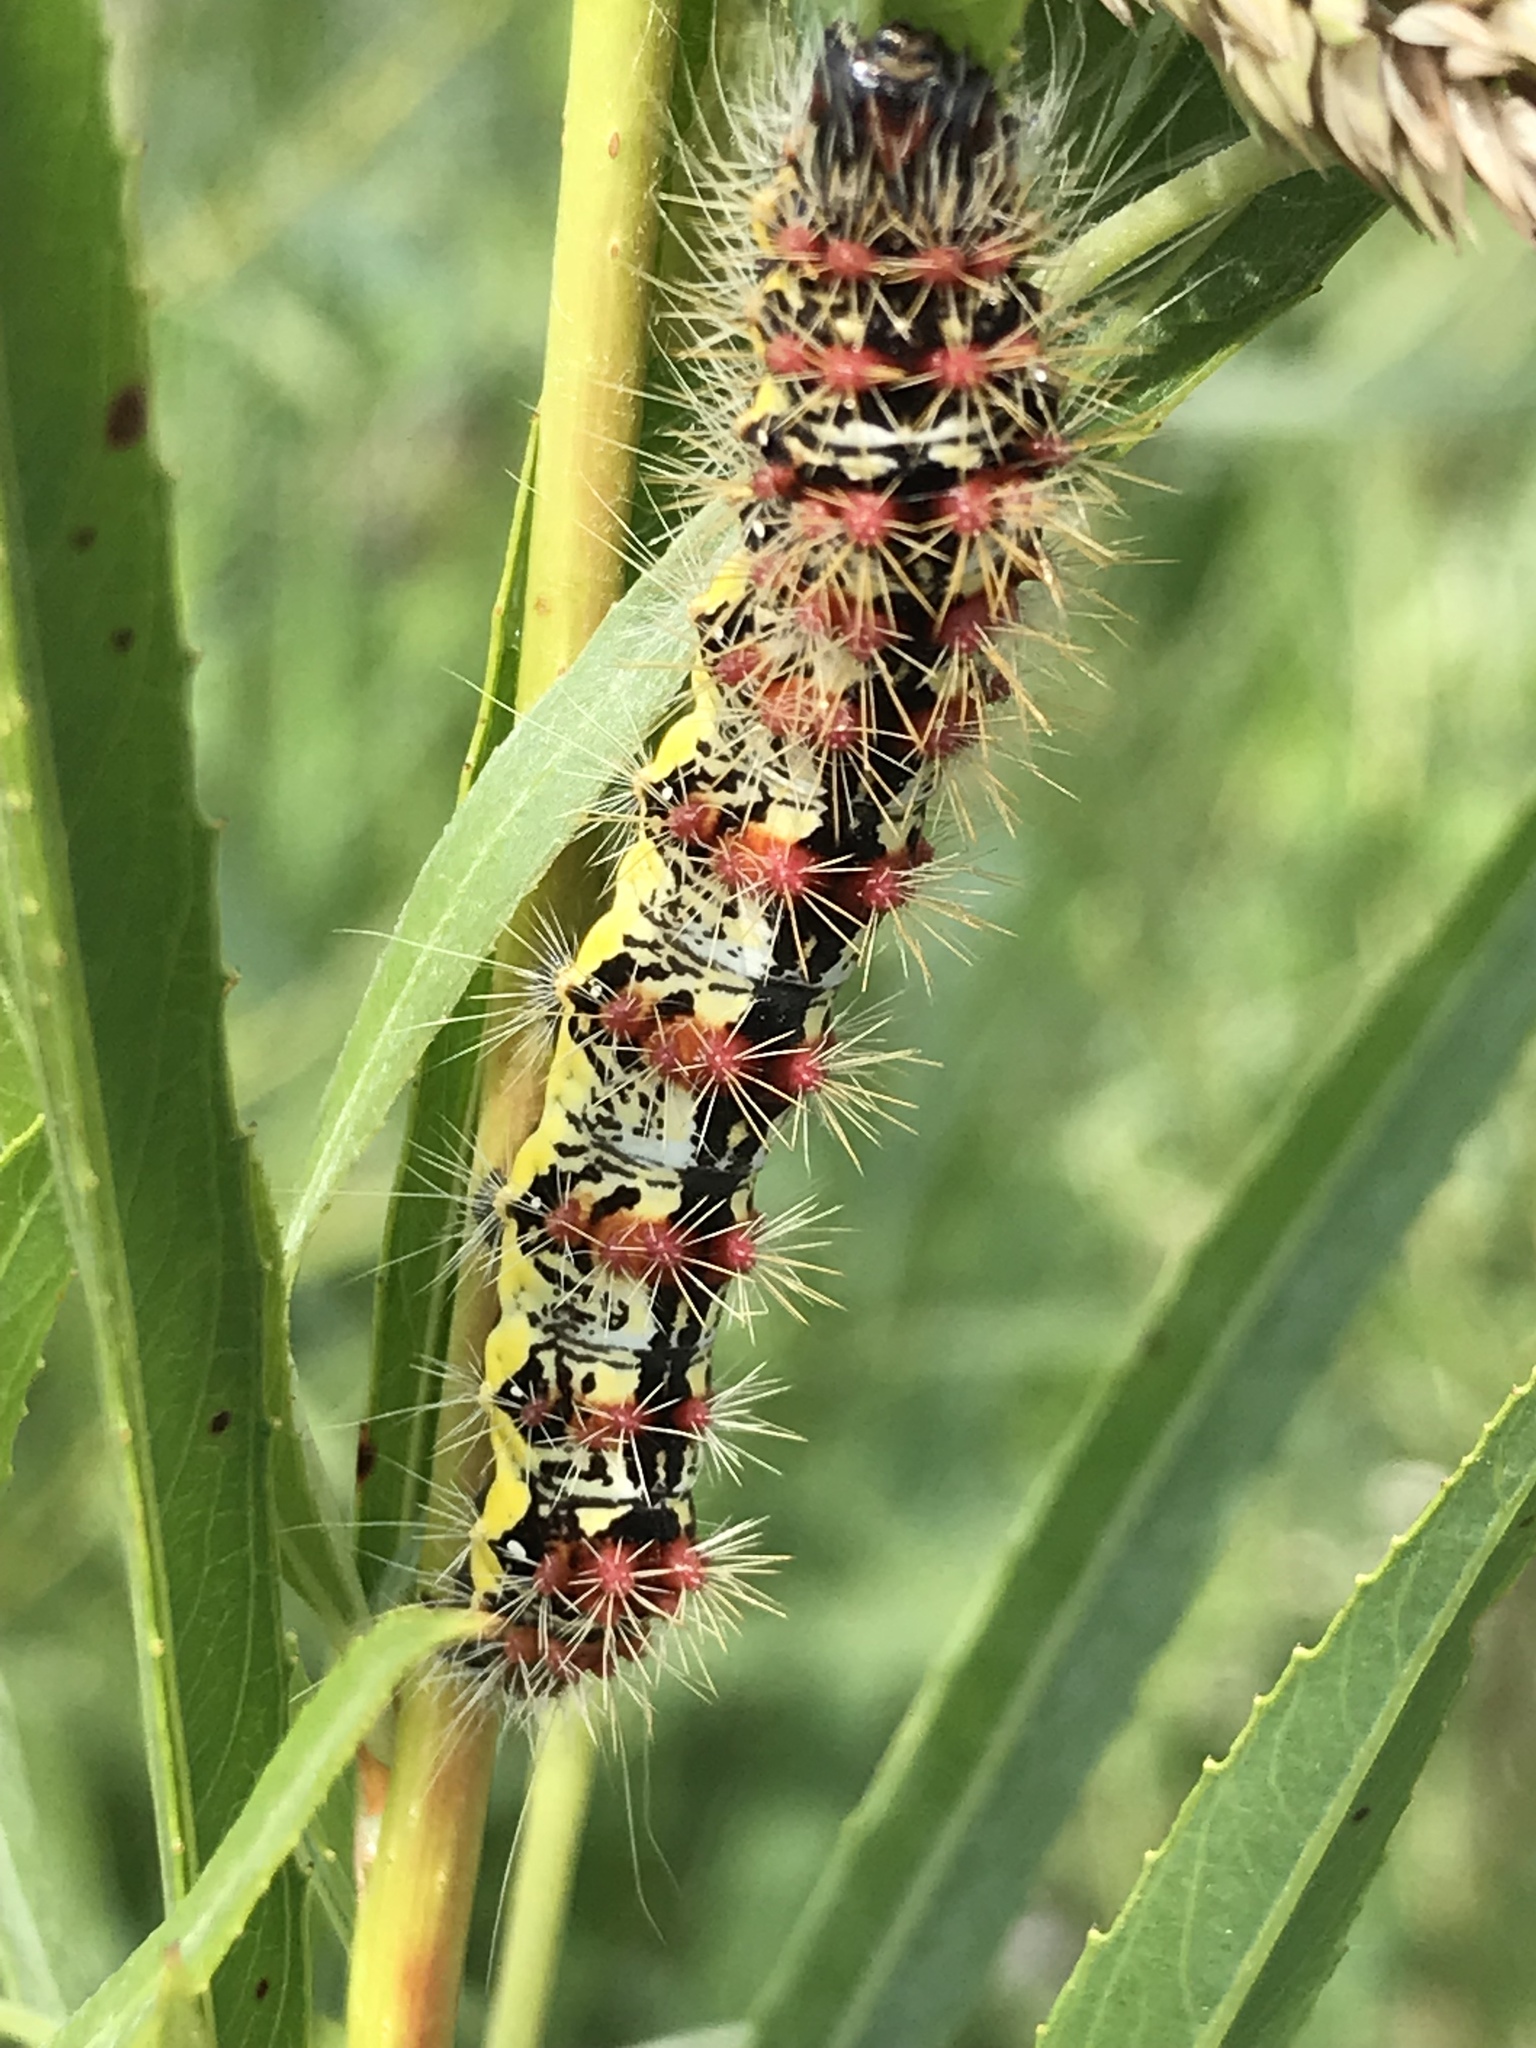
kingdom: Animalia
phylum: Arthropoda
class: Insecta
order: Lepidoptera
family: Noctuidae
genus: Acronicta
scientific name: Acronicta oblinita
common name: Smeared dagger
